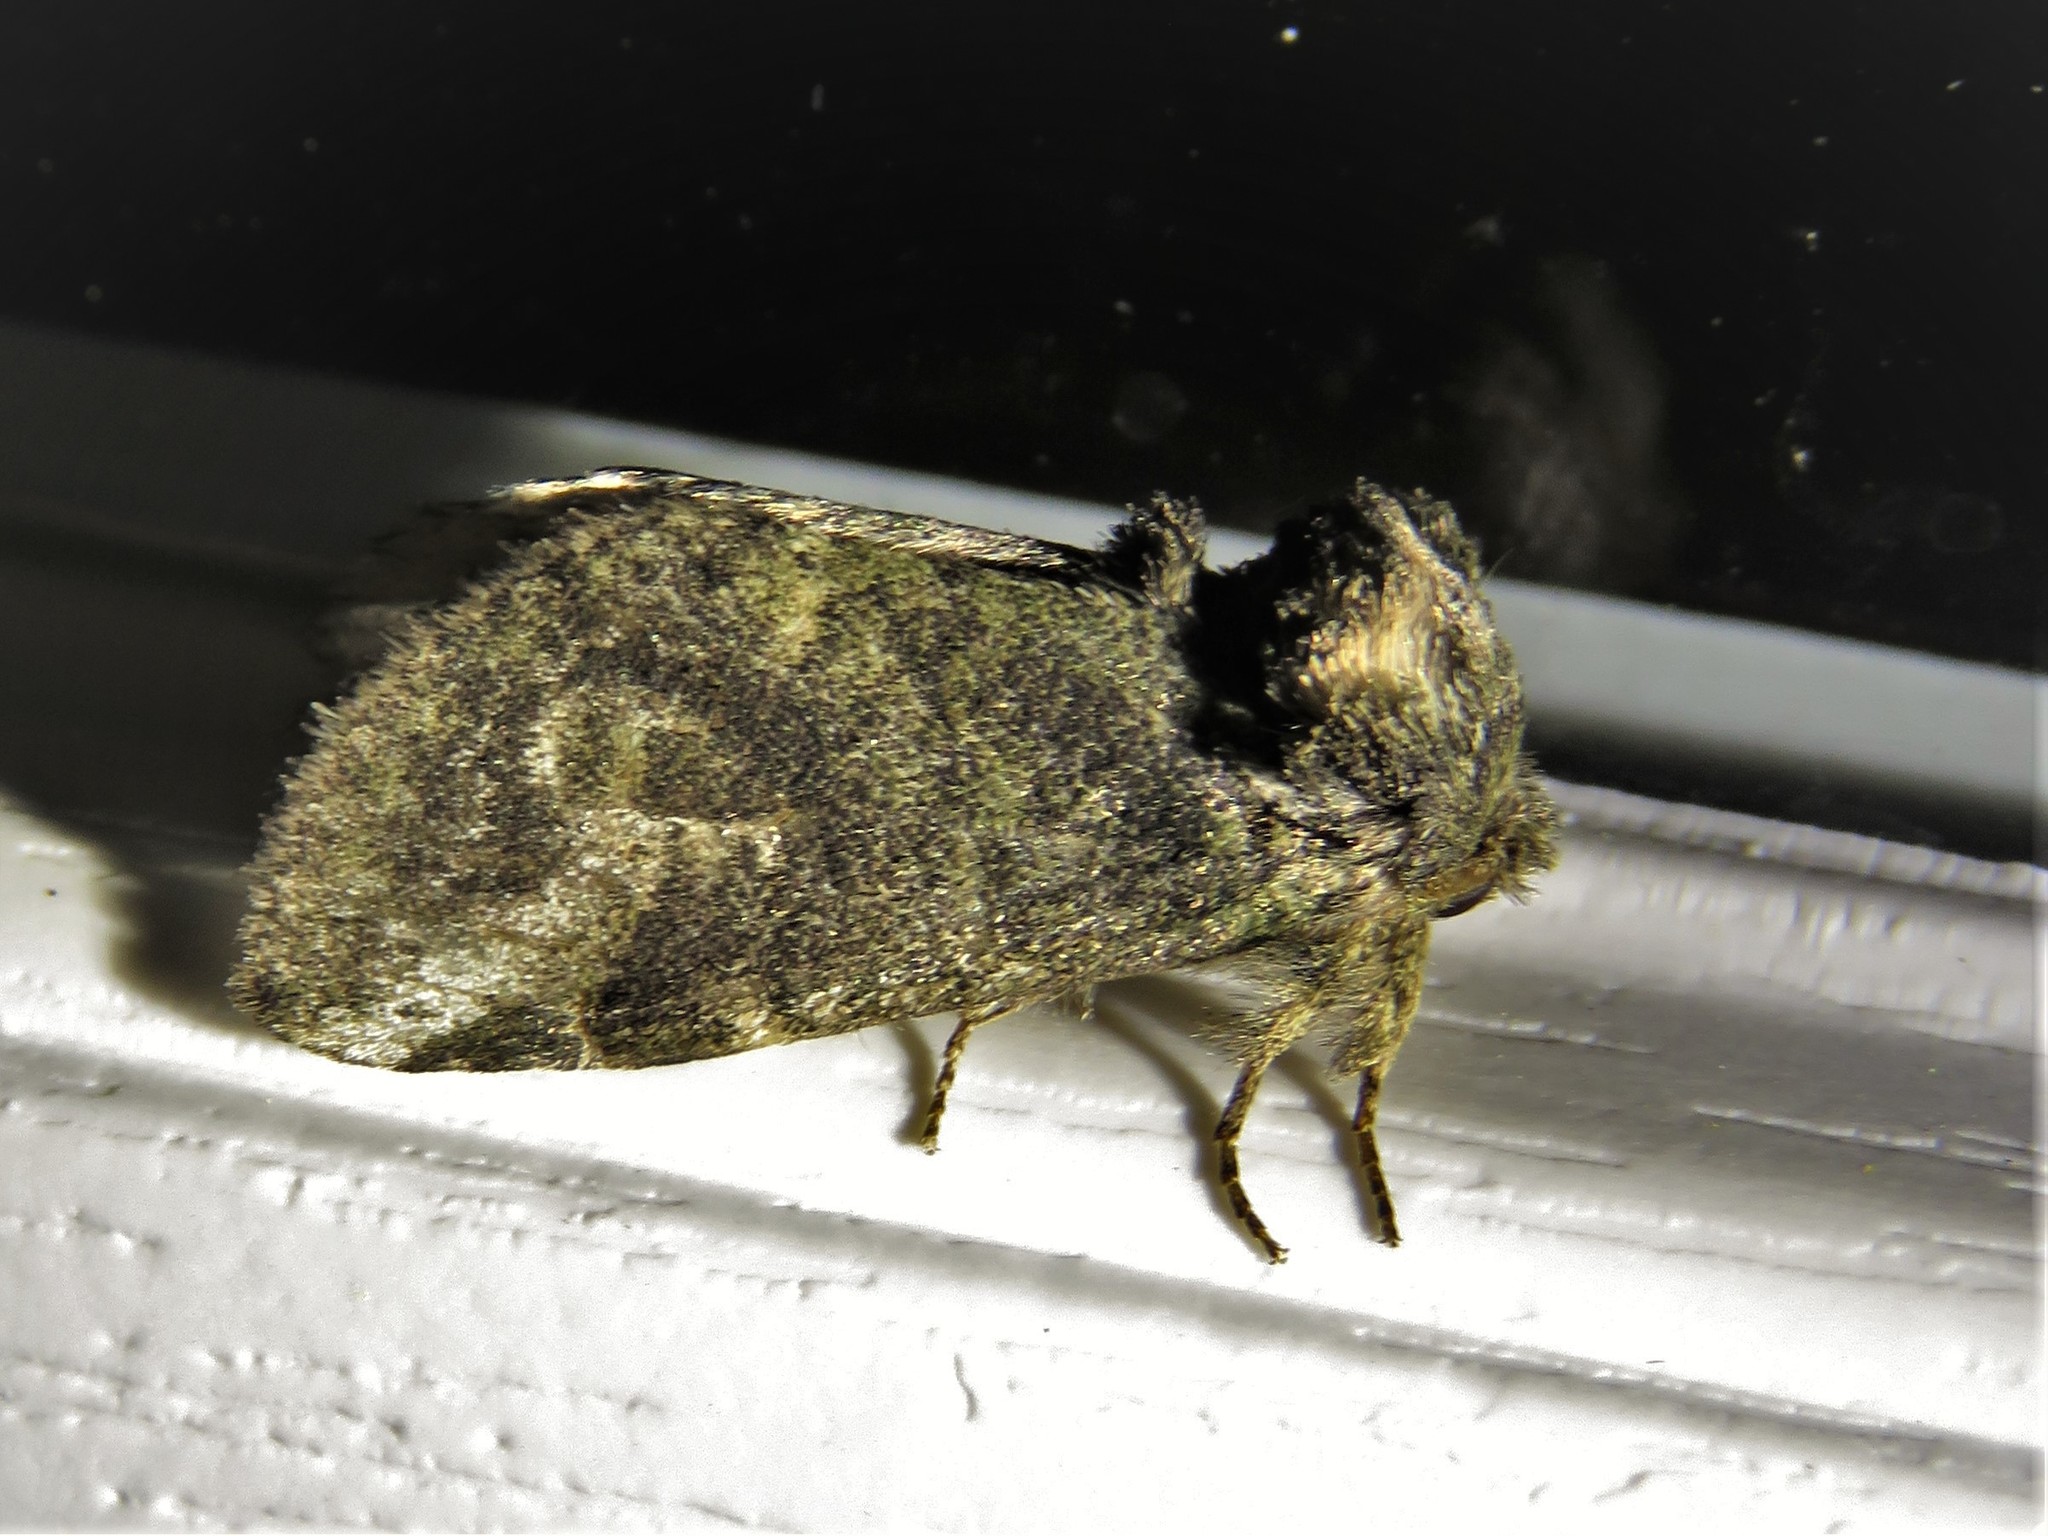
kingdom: Animalia
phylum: Arthropoda
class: Insecta
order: Lepidoptera
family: Notodontidae
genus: Rifargia
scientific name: Rifargia
